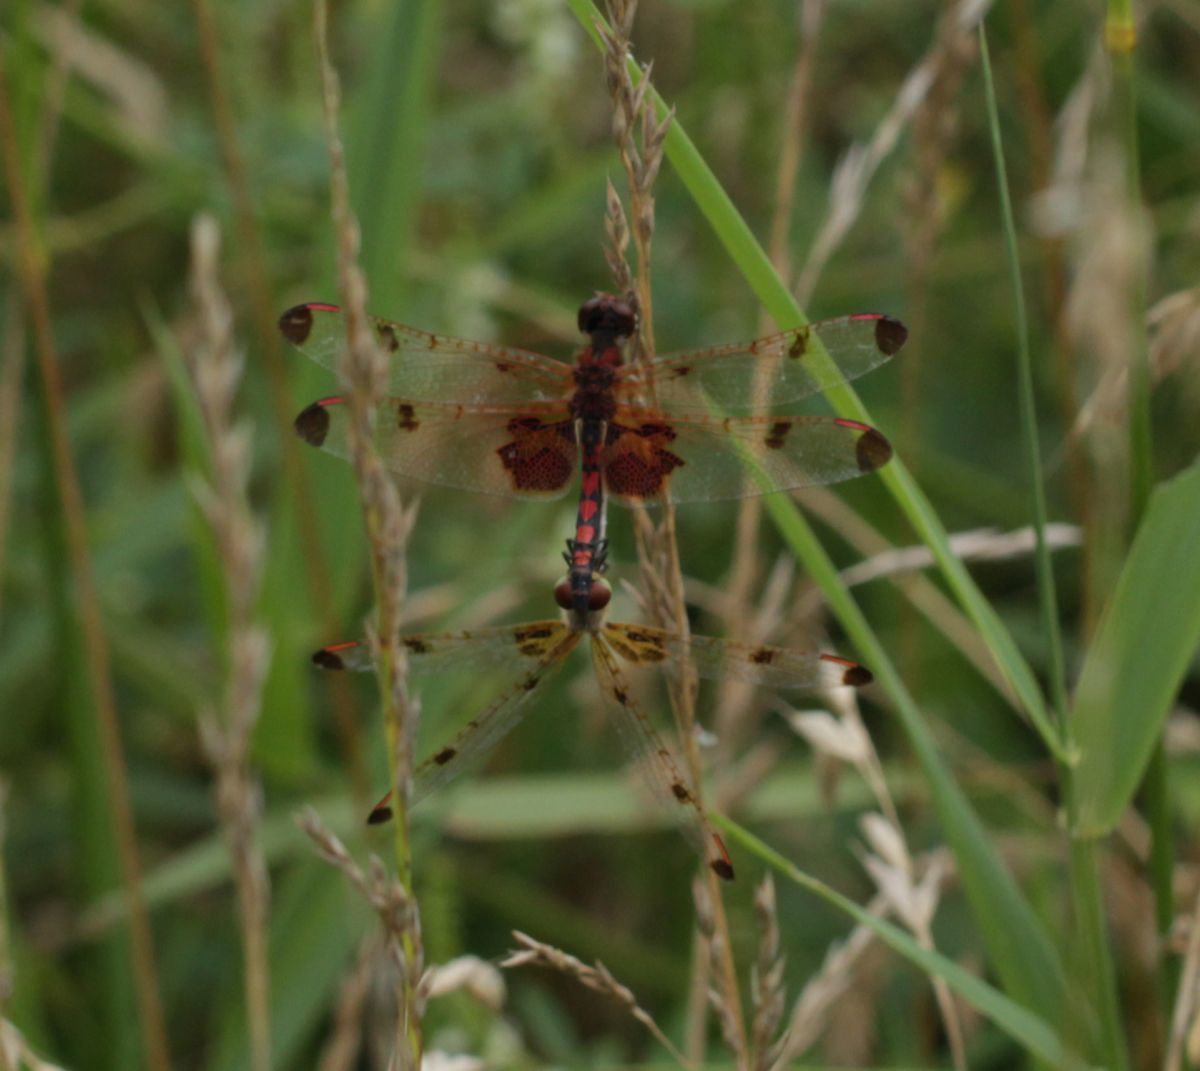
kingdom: Animalia
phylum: Arthropoda
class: Insecta
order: Odonata
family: Libellulidae
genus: Celithemis
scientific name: Celithemis elisa
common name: Calico pennant
